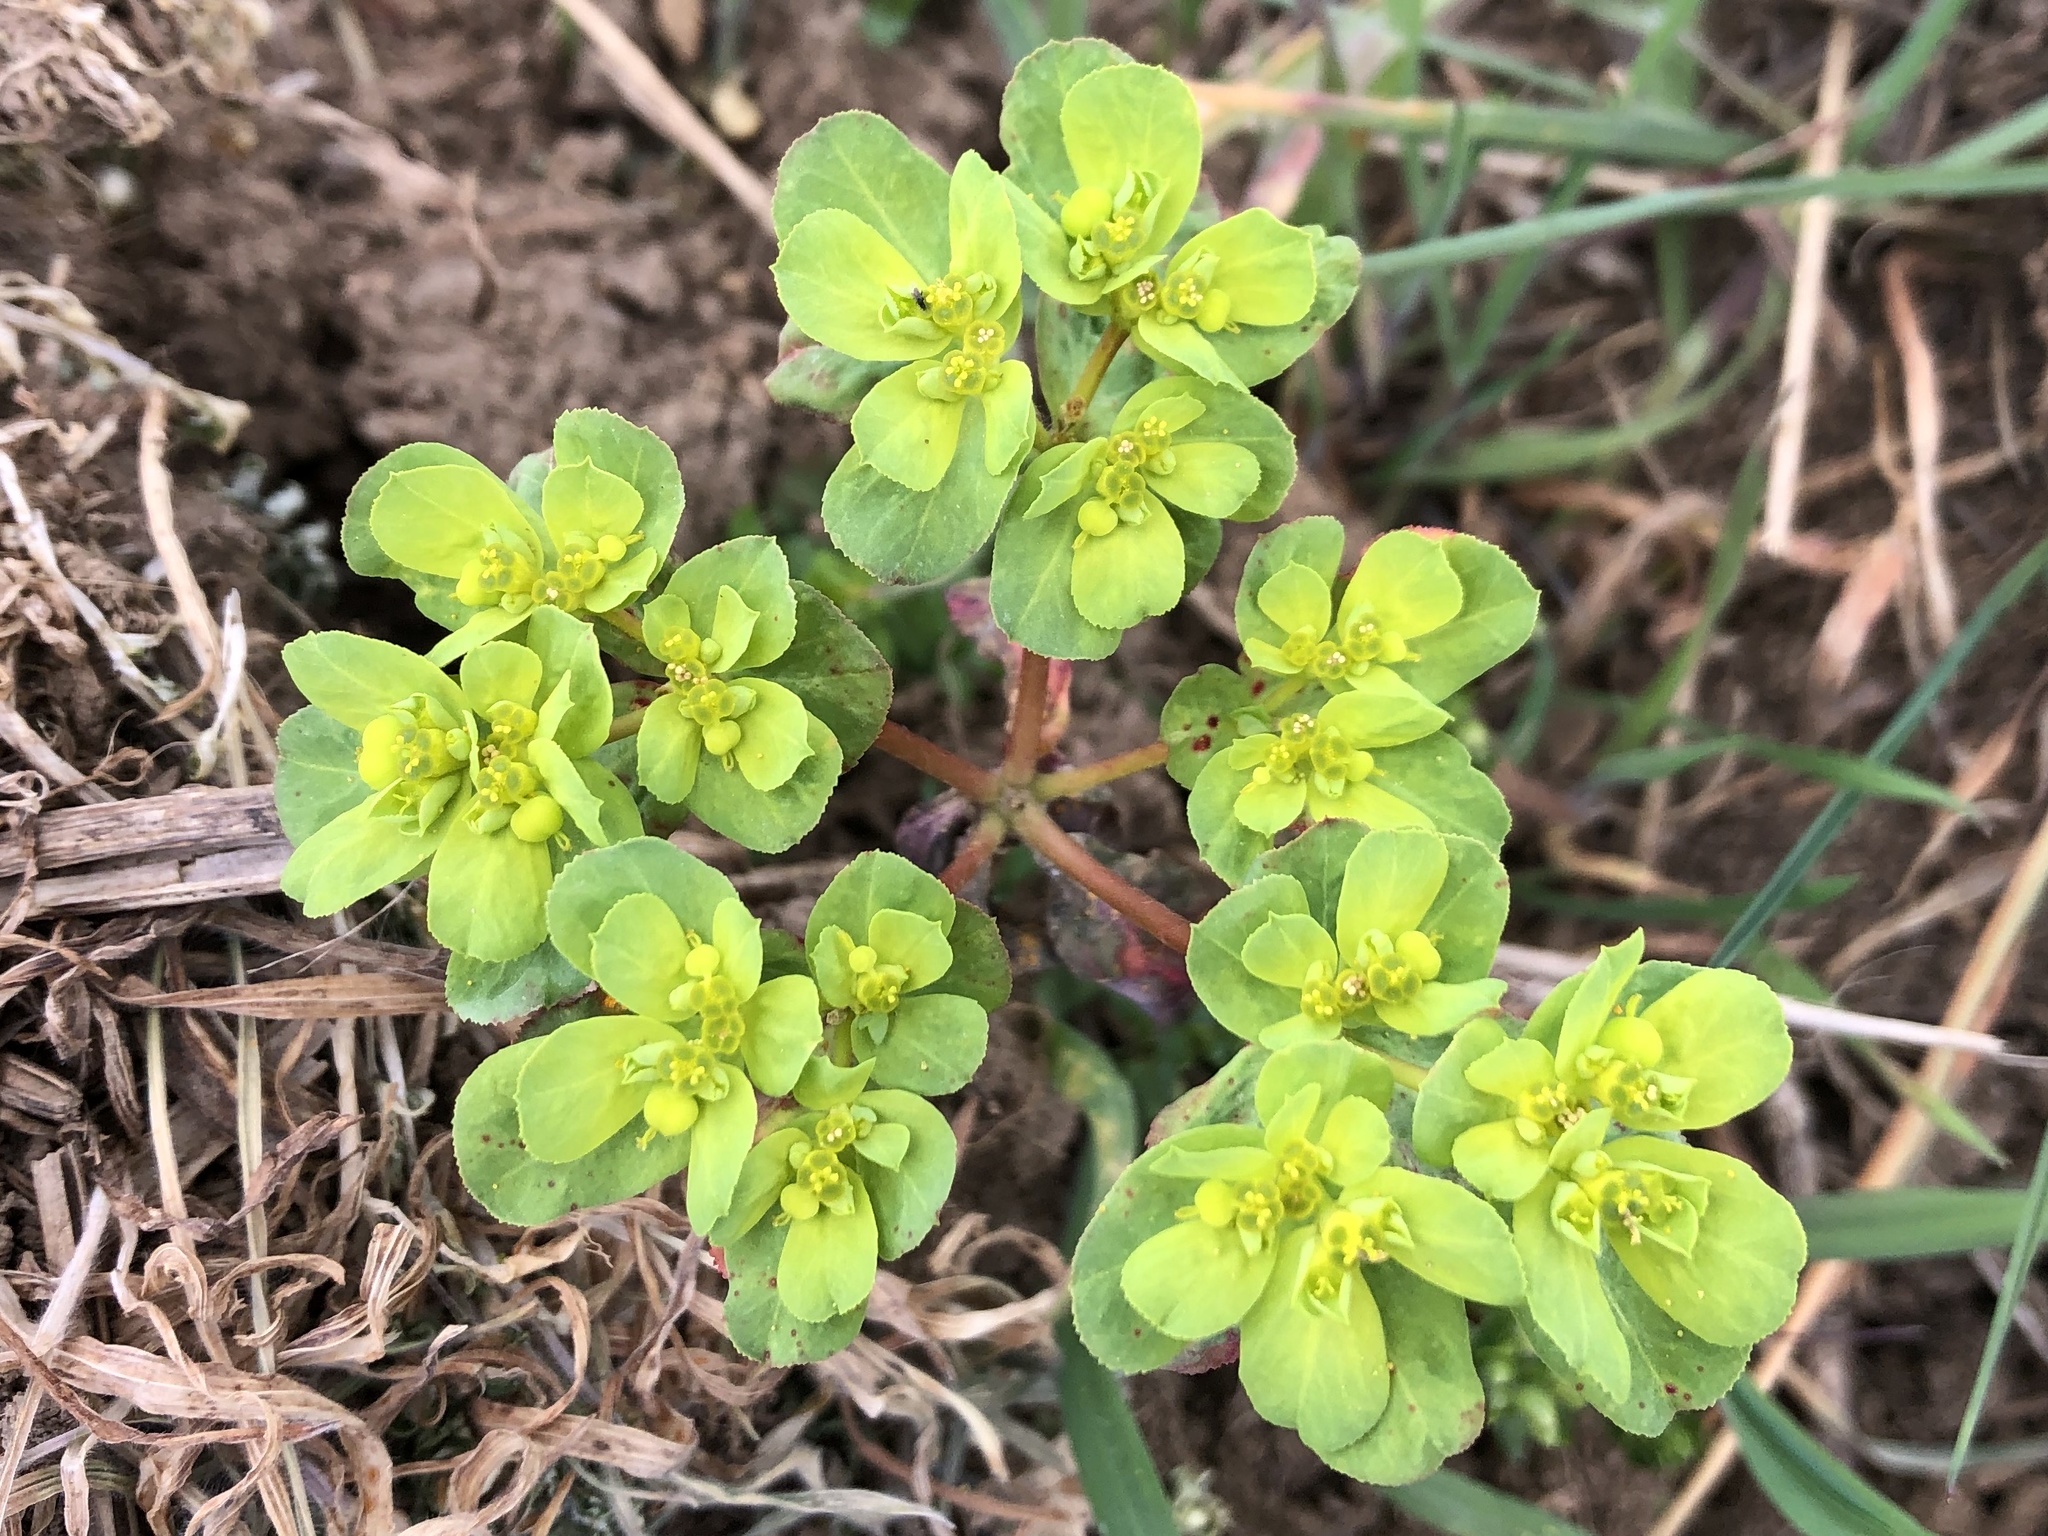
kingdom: Plantae
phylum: Tracheophyta
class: Magnoliopsida
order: Malpighiales
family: Euphorbiaceae
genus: Euphorbia
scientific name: Euphorbia helioscopia
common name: Sun spurge
